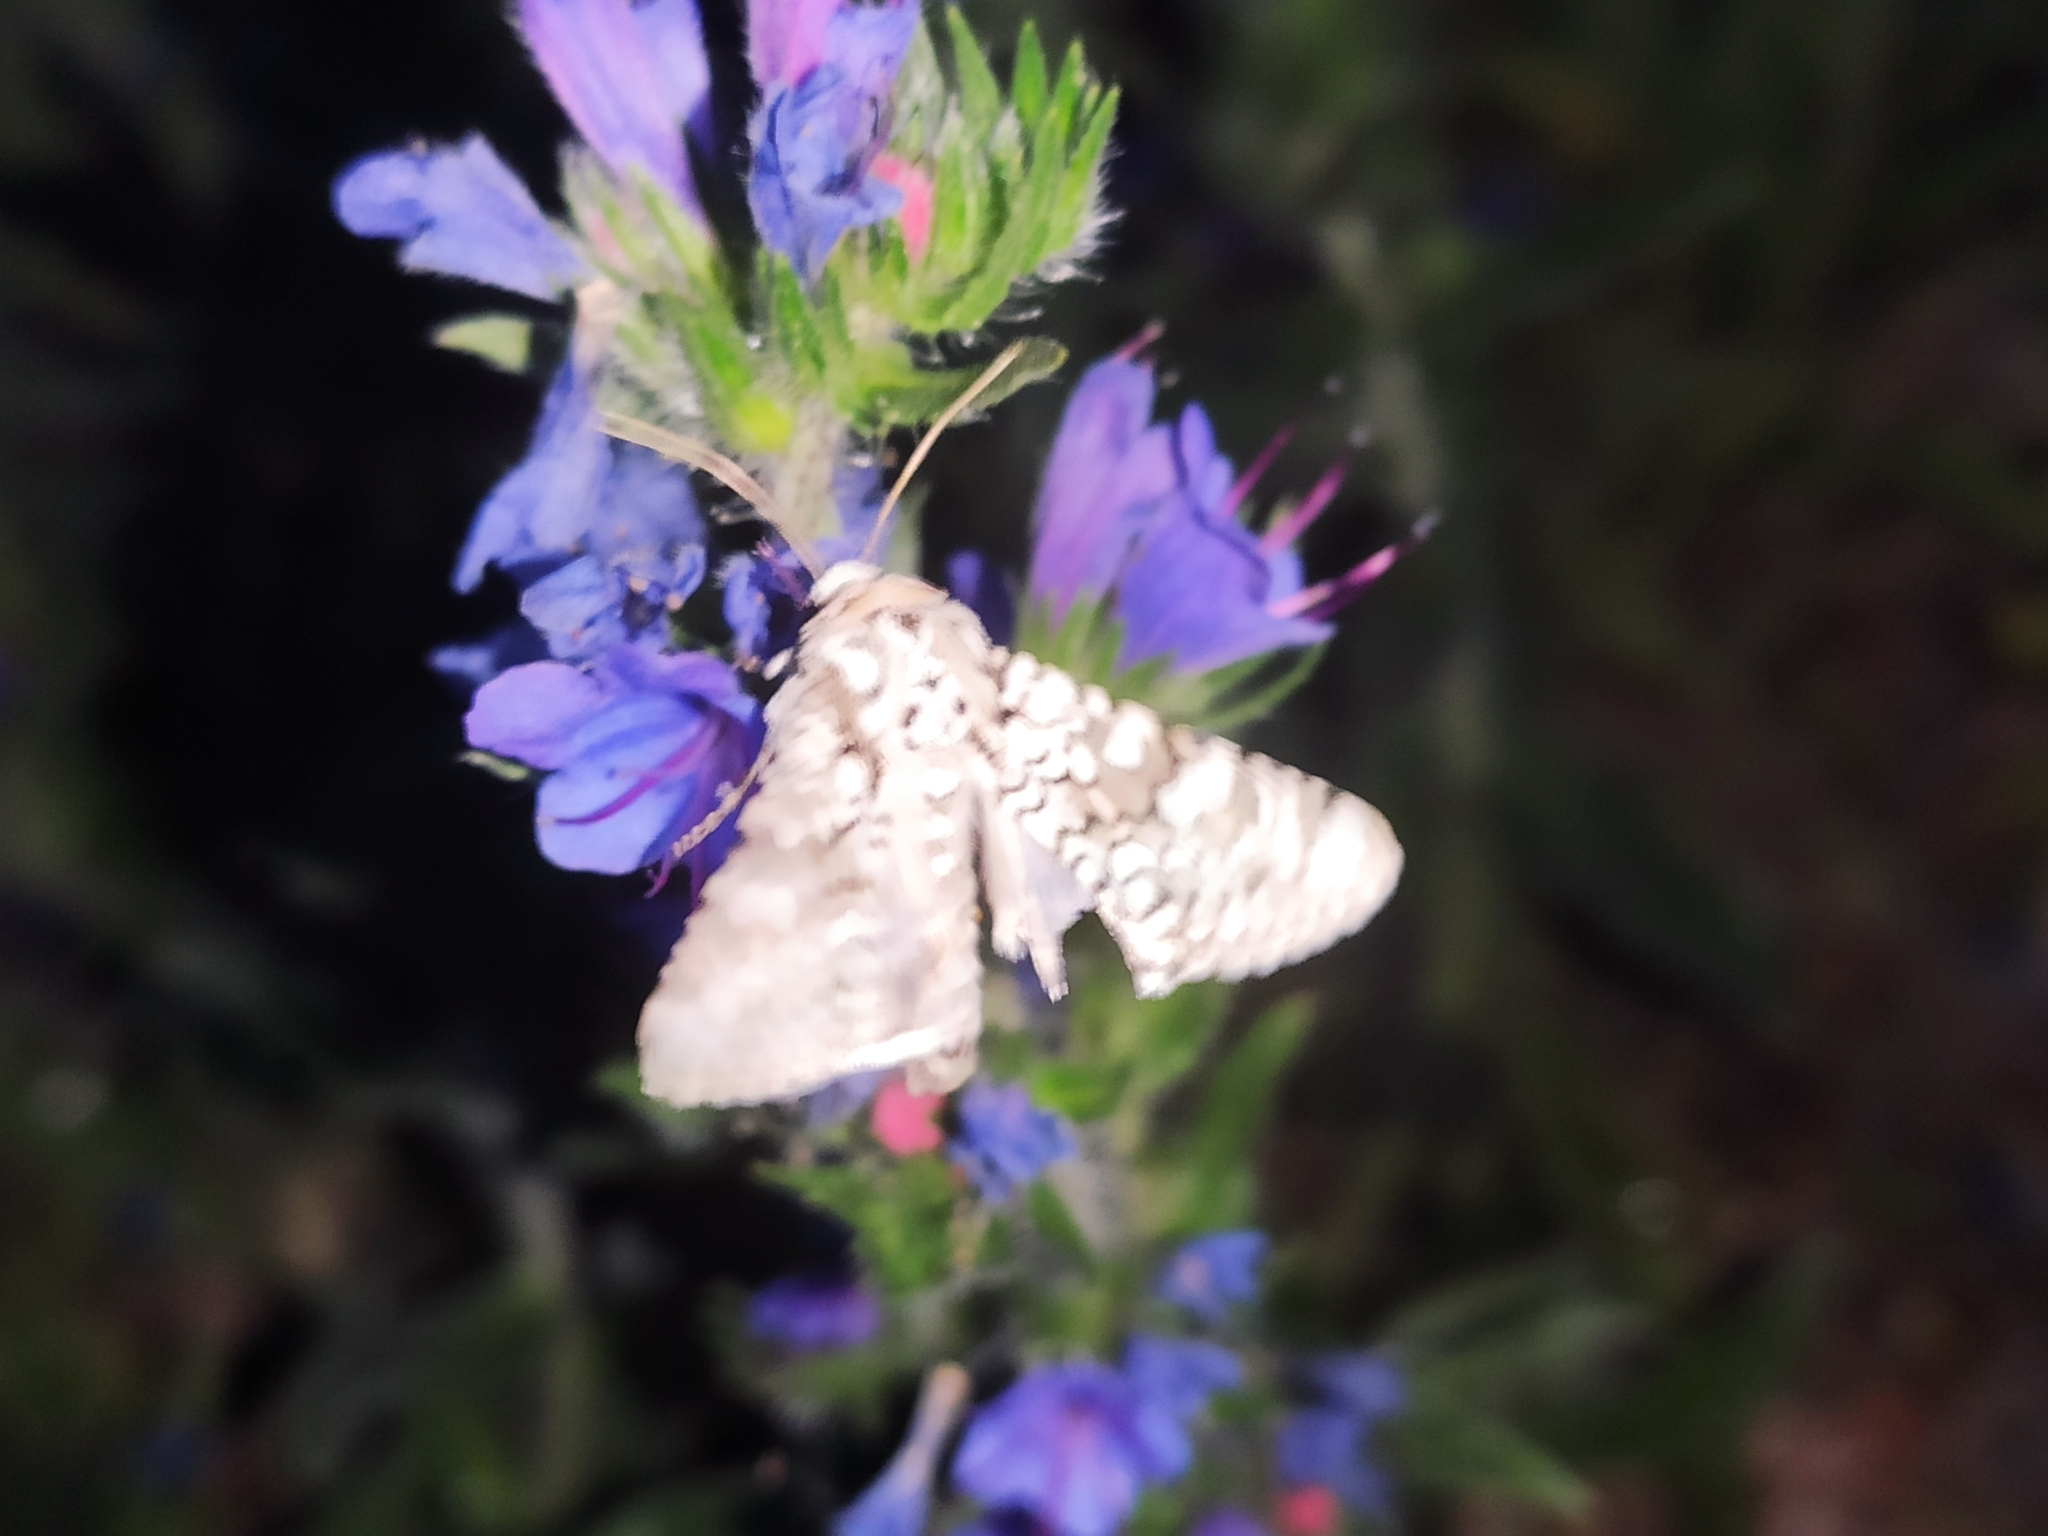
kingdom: Animalia
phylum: Arthropoda
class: Insecta
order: Lepidoptera
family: Noctuidae
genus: Hecatera
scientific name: Hecatera cappa
